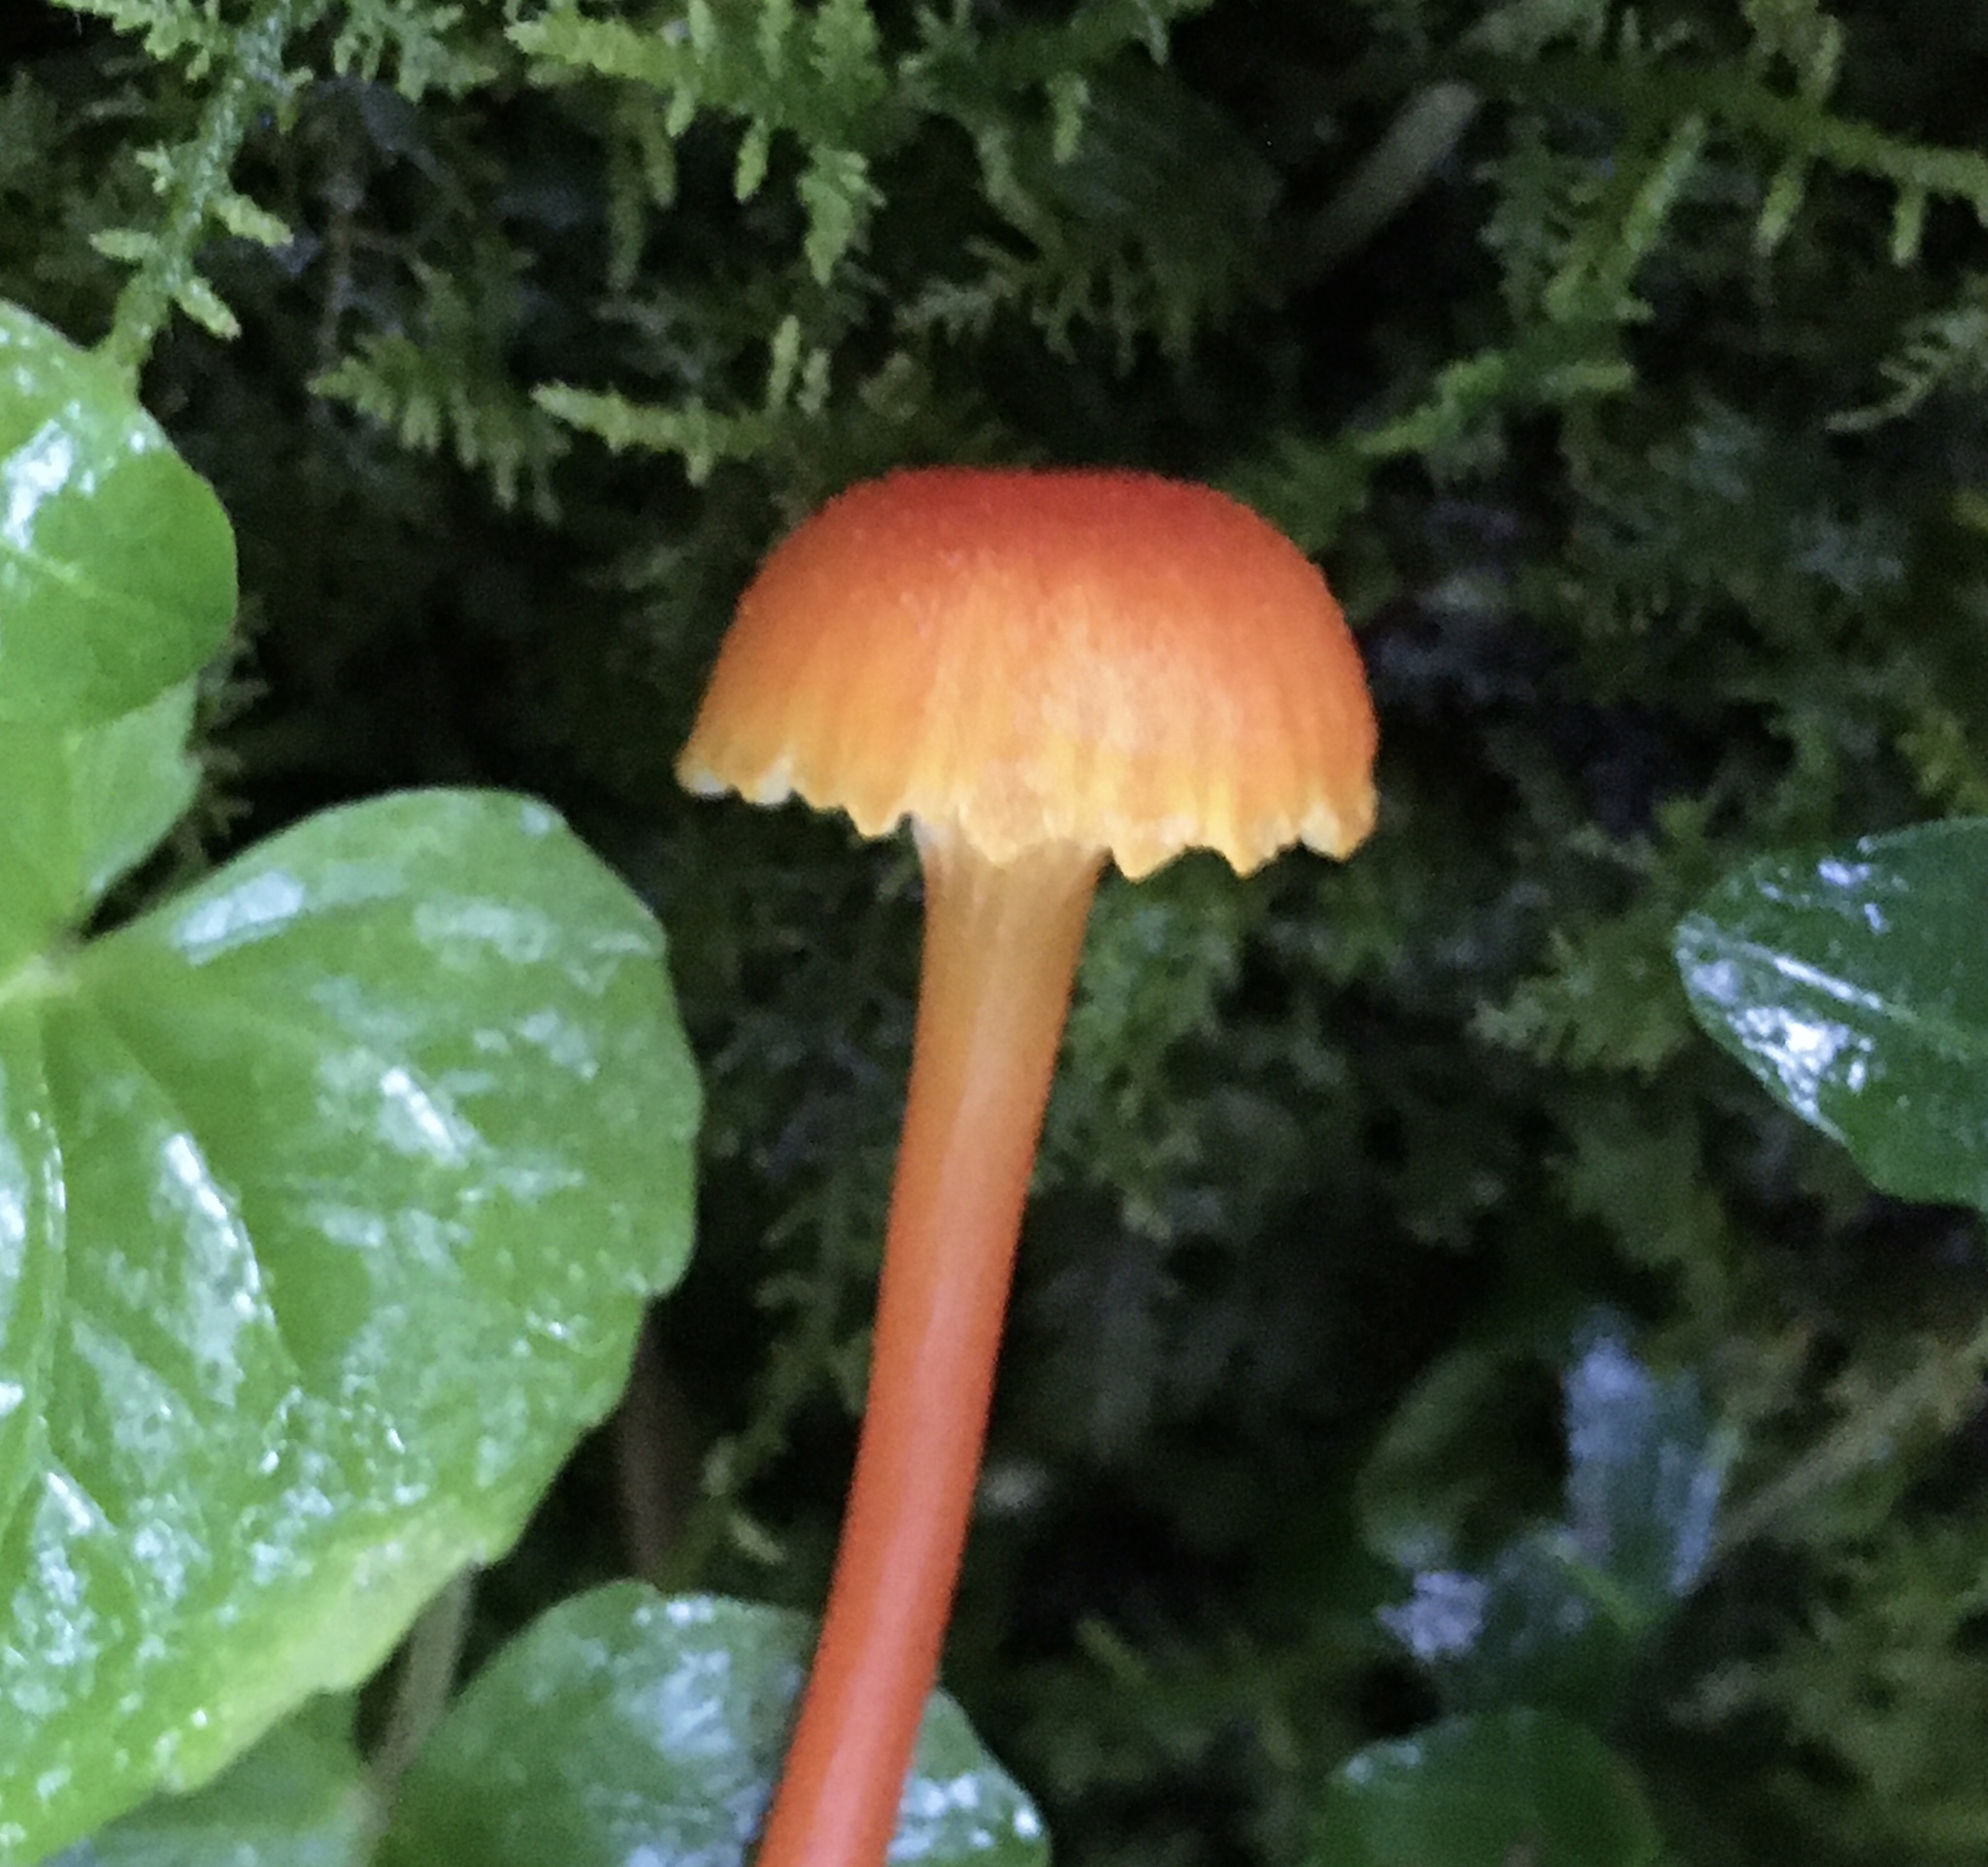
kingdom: Fungi
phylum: Basidiomycota
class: Agaricomycetes
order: Agaricales
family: Hygrophoraceae
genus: Hygrocybe
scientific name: Hygrocybe cantharellus
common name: Goblet waxcap
